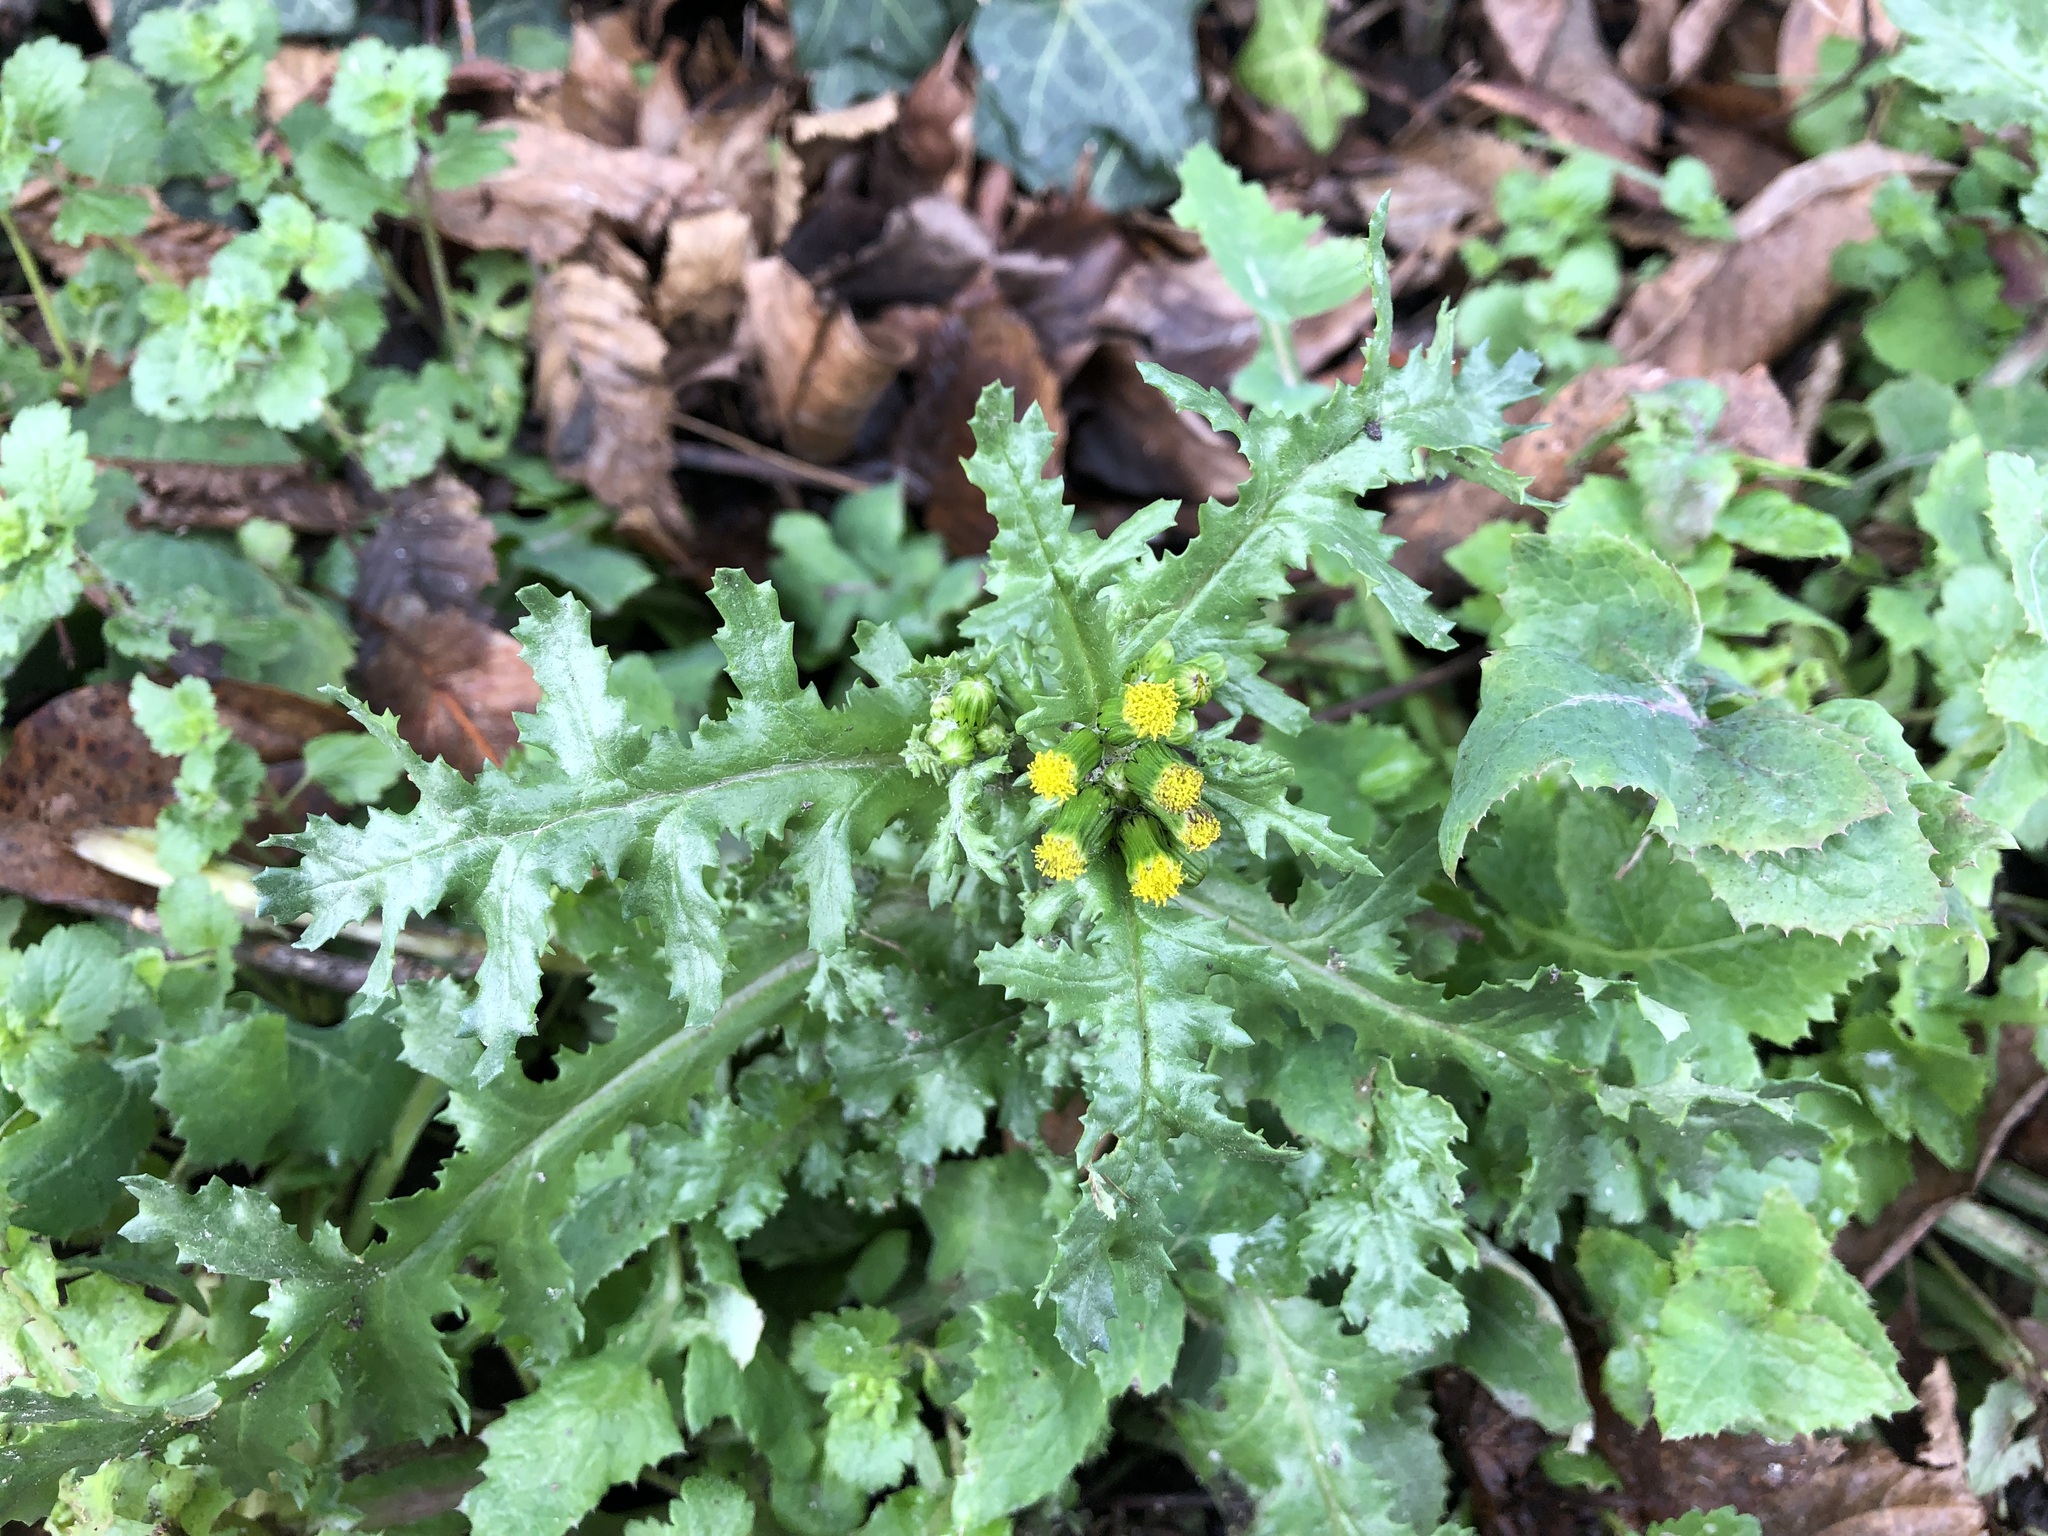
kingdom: Plantae
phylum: Tracheophyta
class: Magnoliopsida
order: Asterales
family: Asteraceae
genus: Senecio
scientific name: Senecio vulgaris
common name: Old-man-in-the-spring
